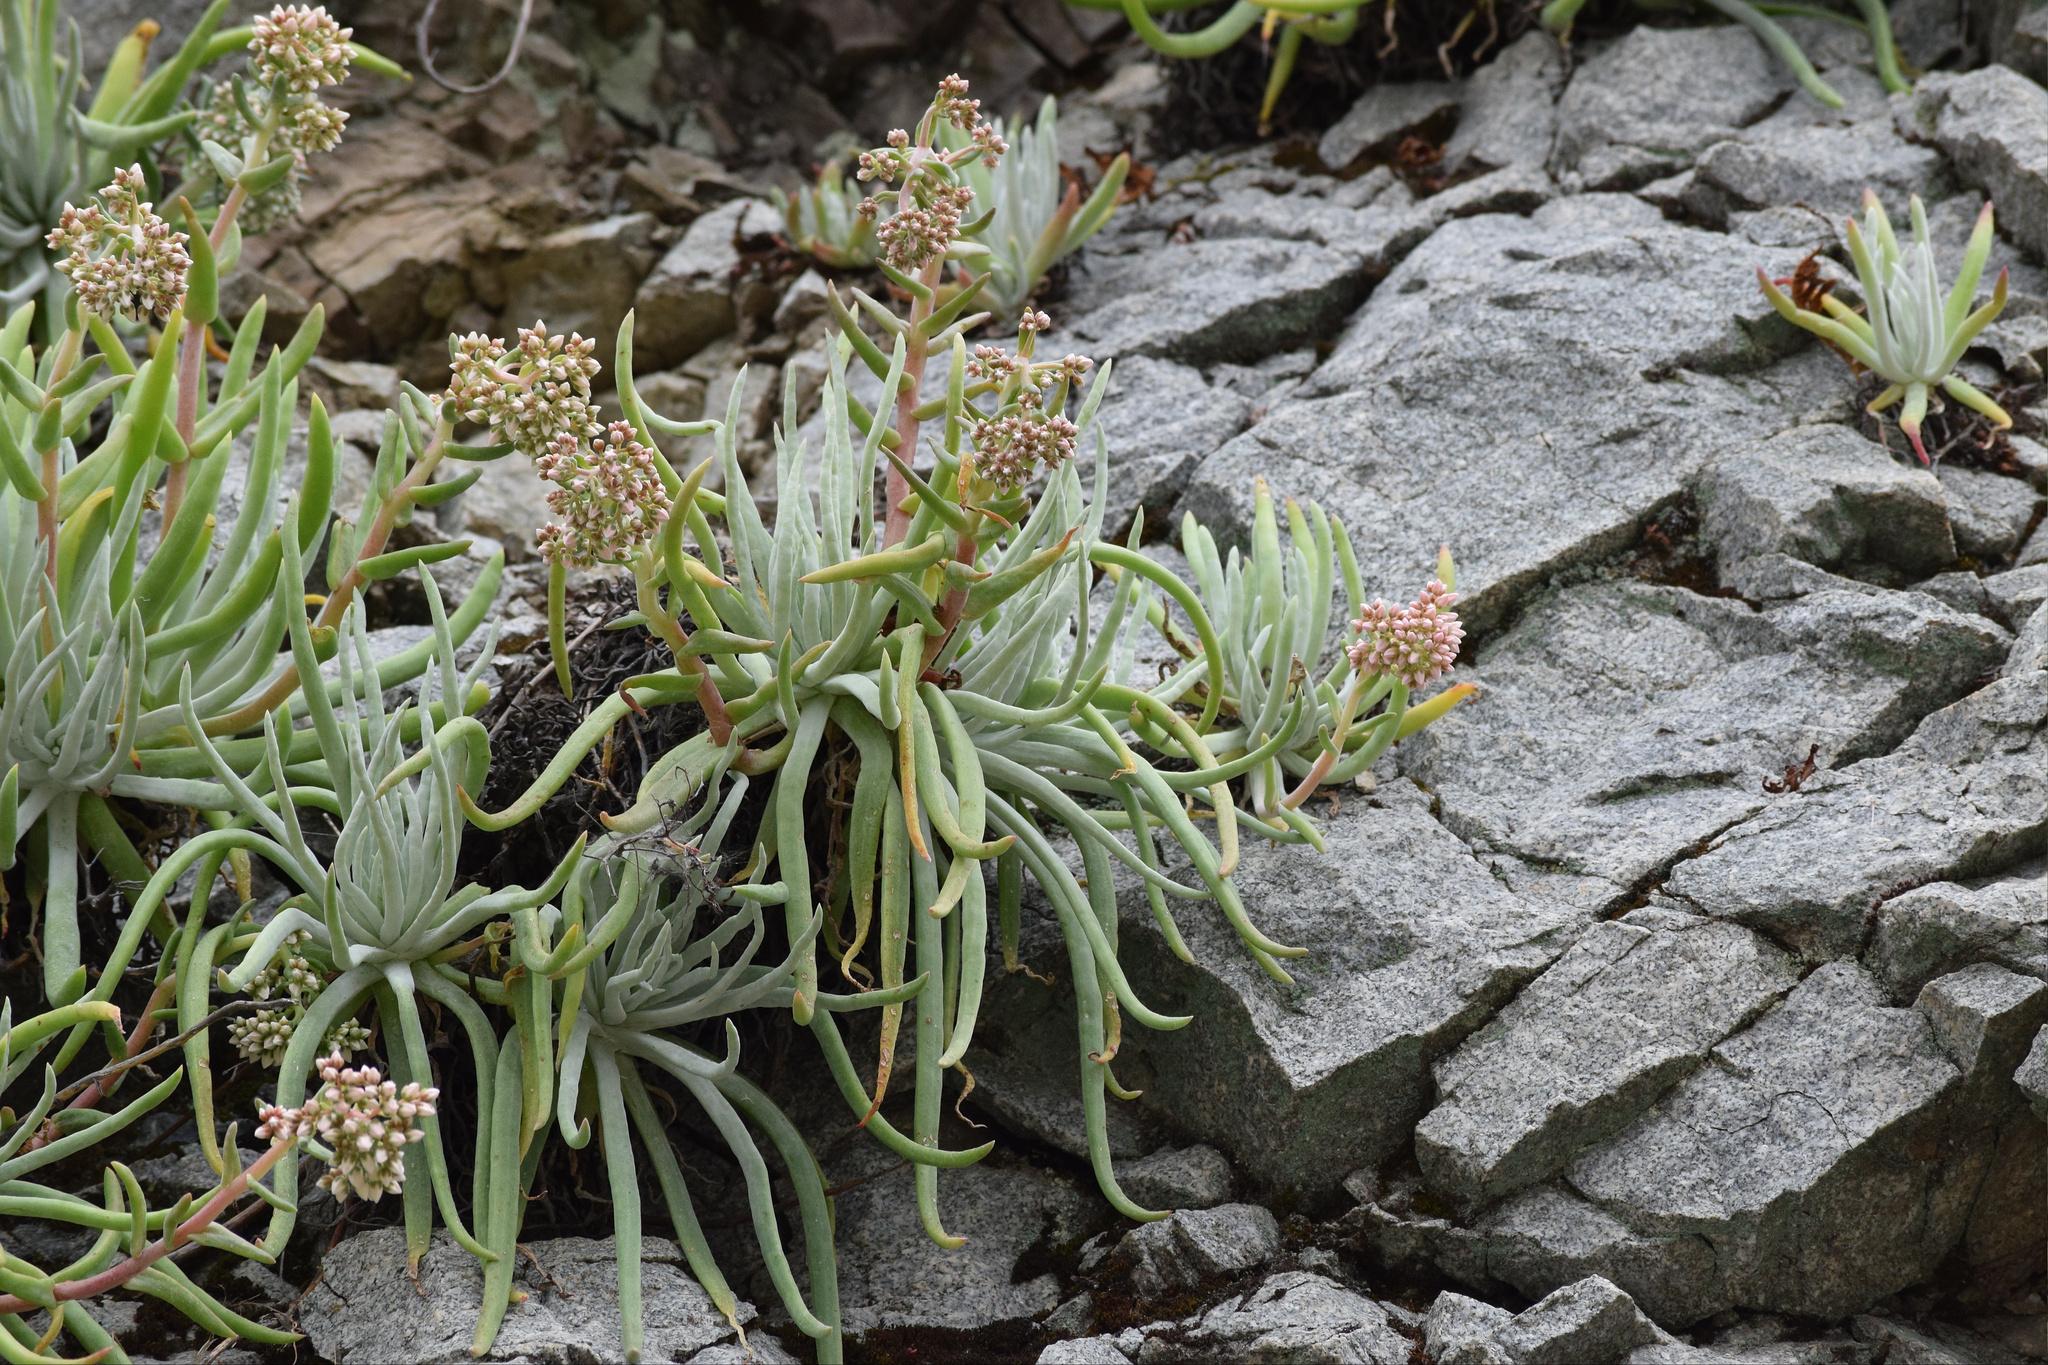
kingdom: Plantae
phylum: Tracheophyta
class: Magnoliopsida
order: Saxifragales
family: Crassulaceae
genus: Dudleya
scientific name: Dudleya densiflora
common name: San gabriel mountains dudleya
